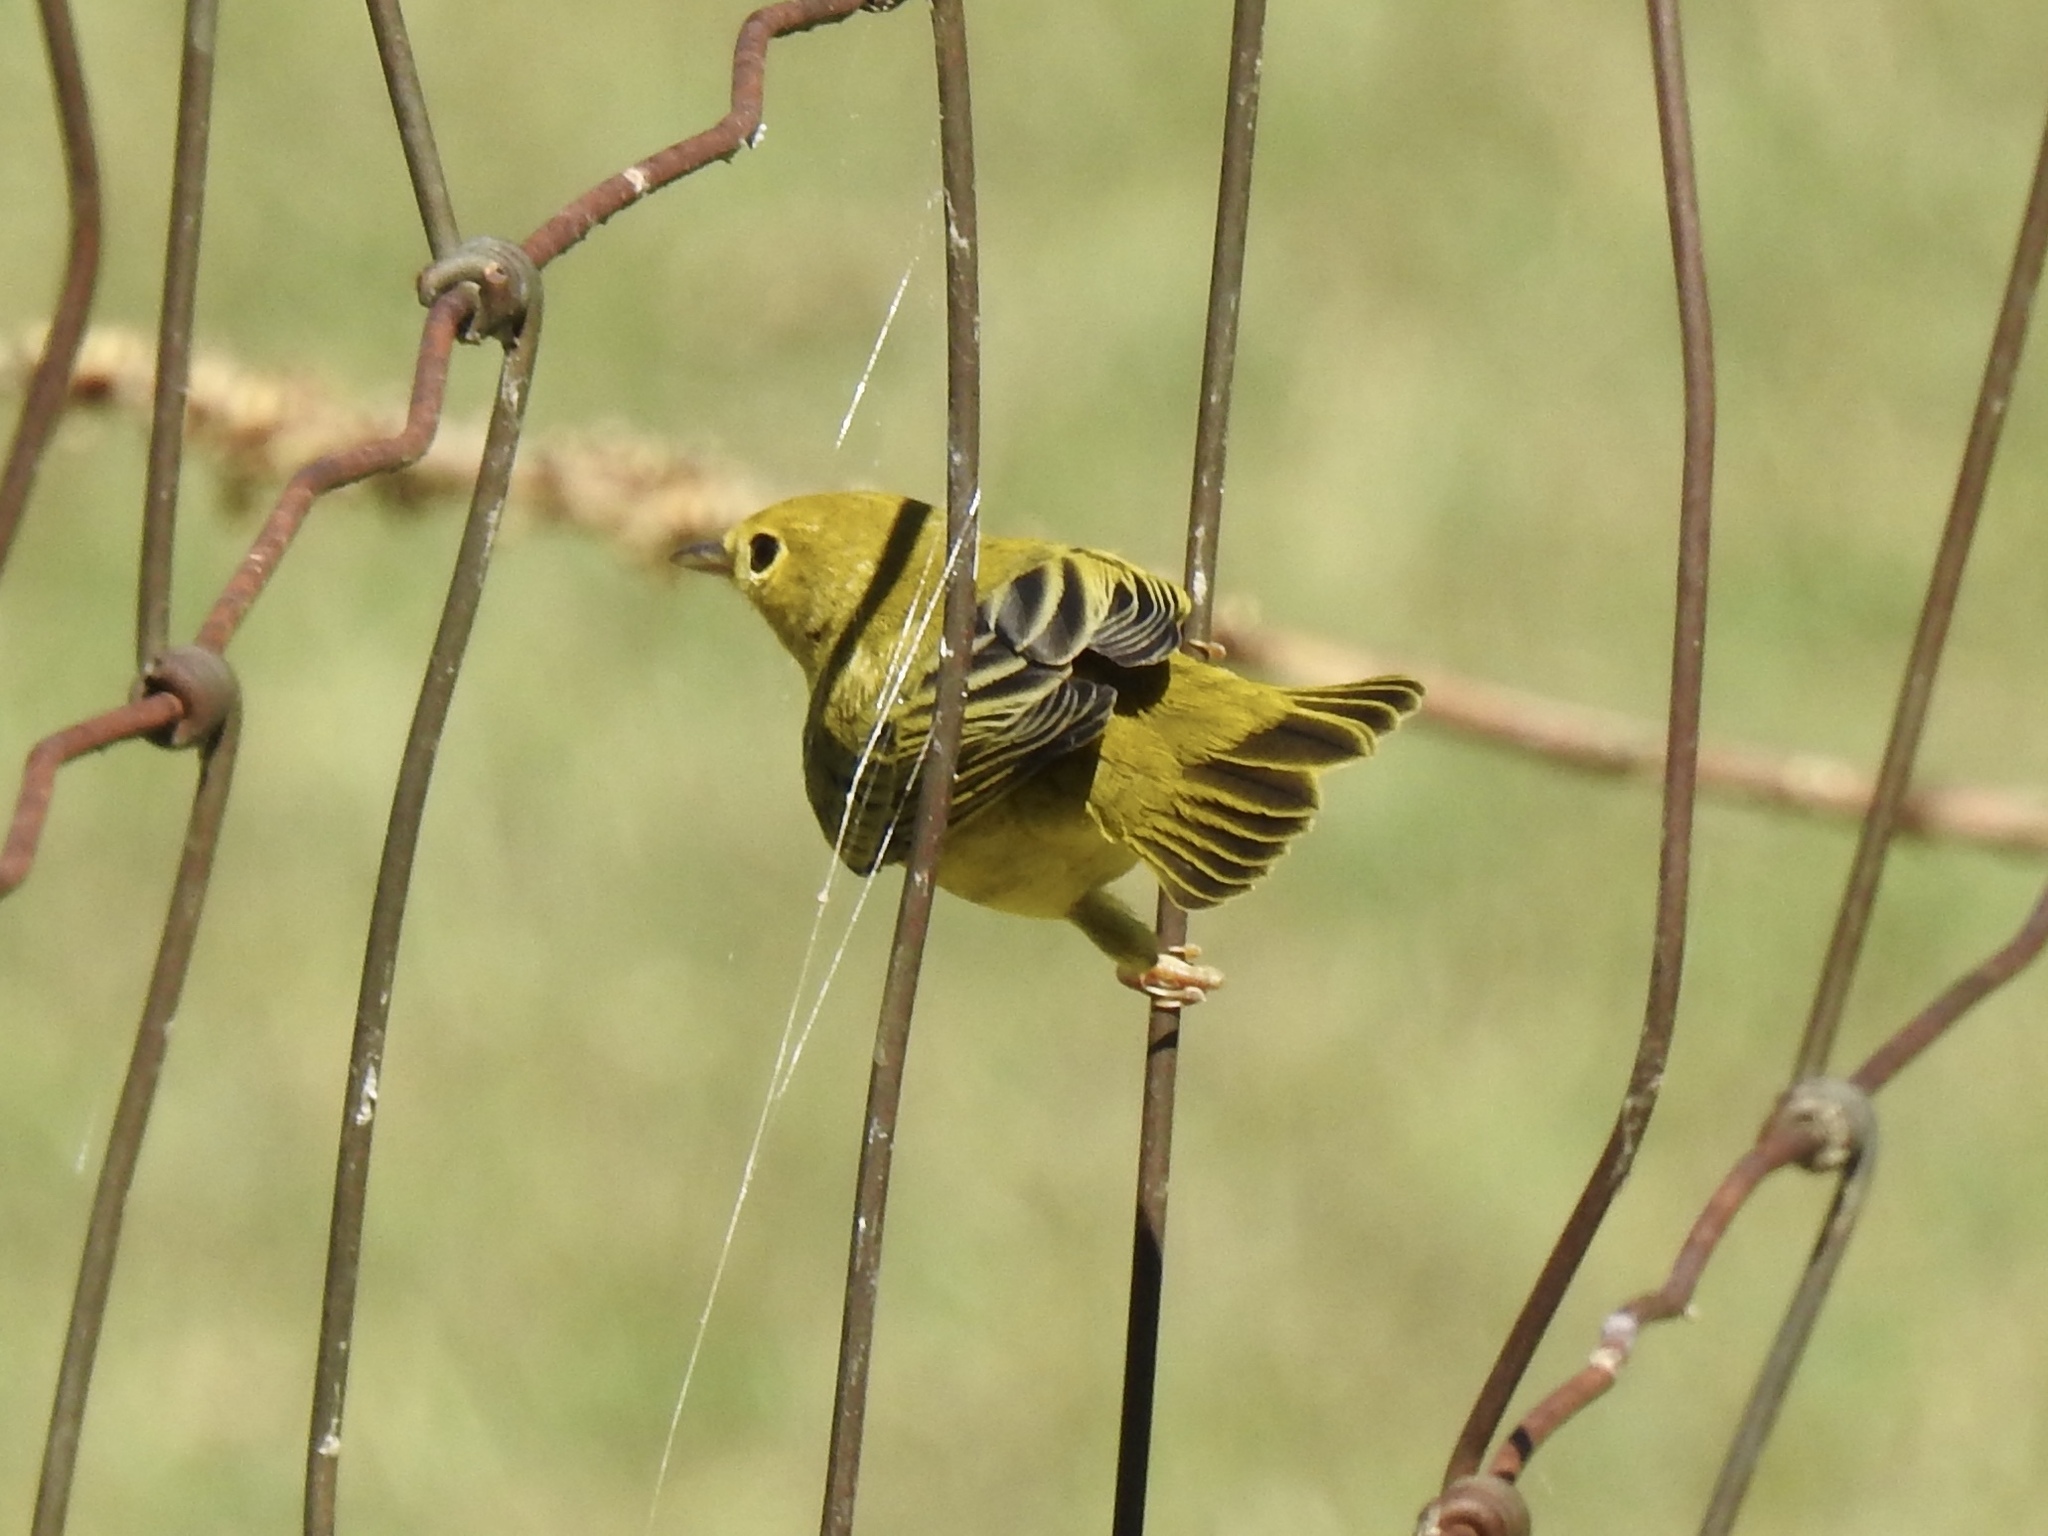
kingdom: Animalia
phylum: Chordata
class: Aves
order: Passeriformes
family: Parulidae
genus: Setophaga
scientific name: Setophaga petechia
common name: Yellow warbler
